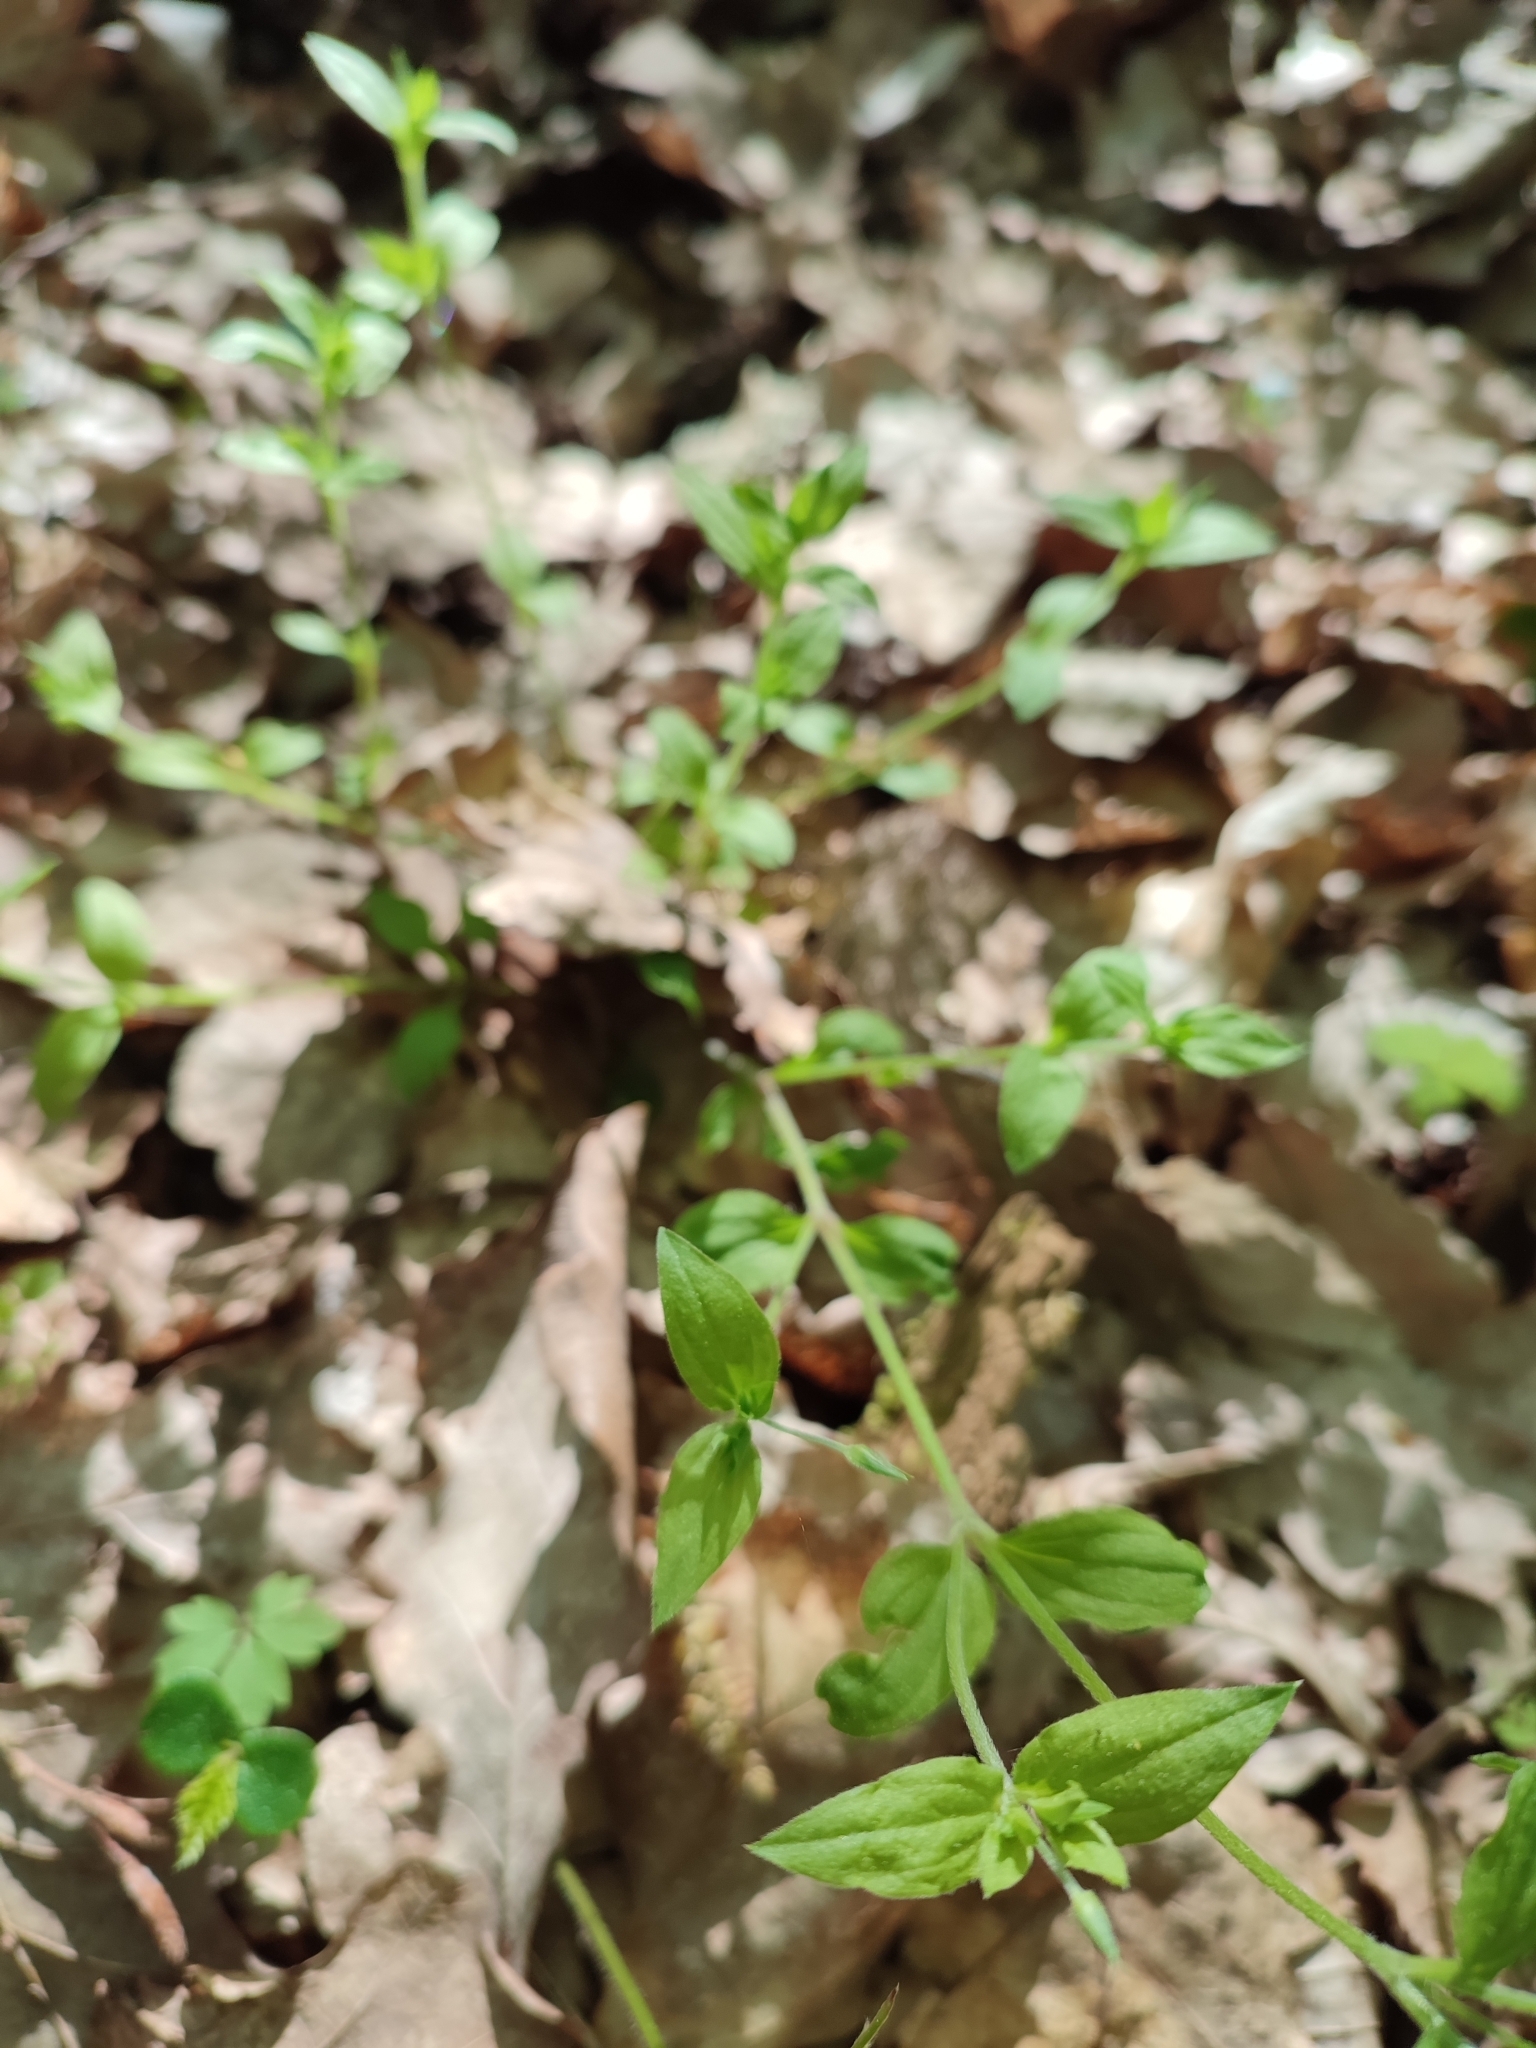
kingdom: Plantae
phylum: Tracheophyta
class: Magnoliopsida
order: Caryophyllales
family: Caryophyllaceae
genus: Moehringia
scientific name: Moehringia trinervia
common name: Three-nerved sandwort
